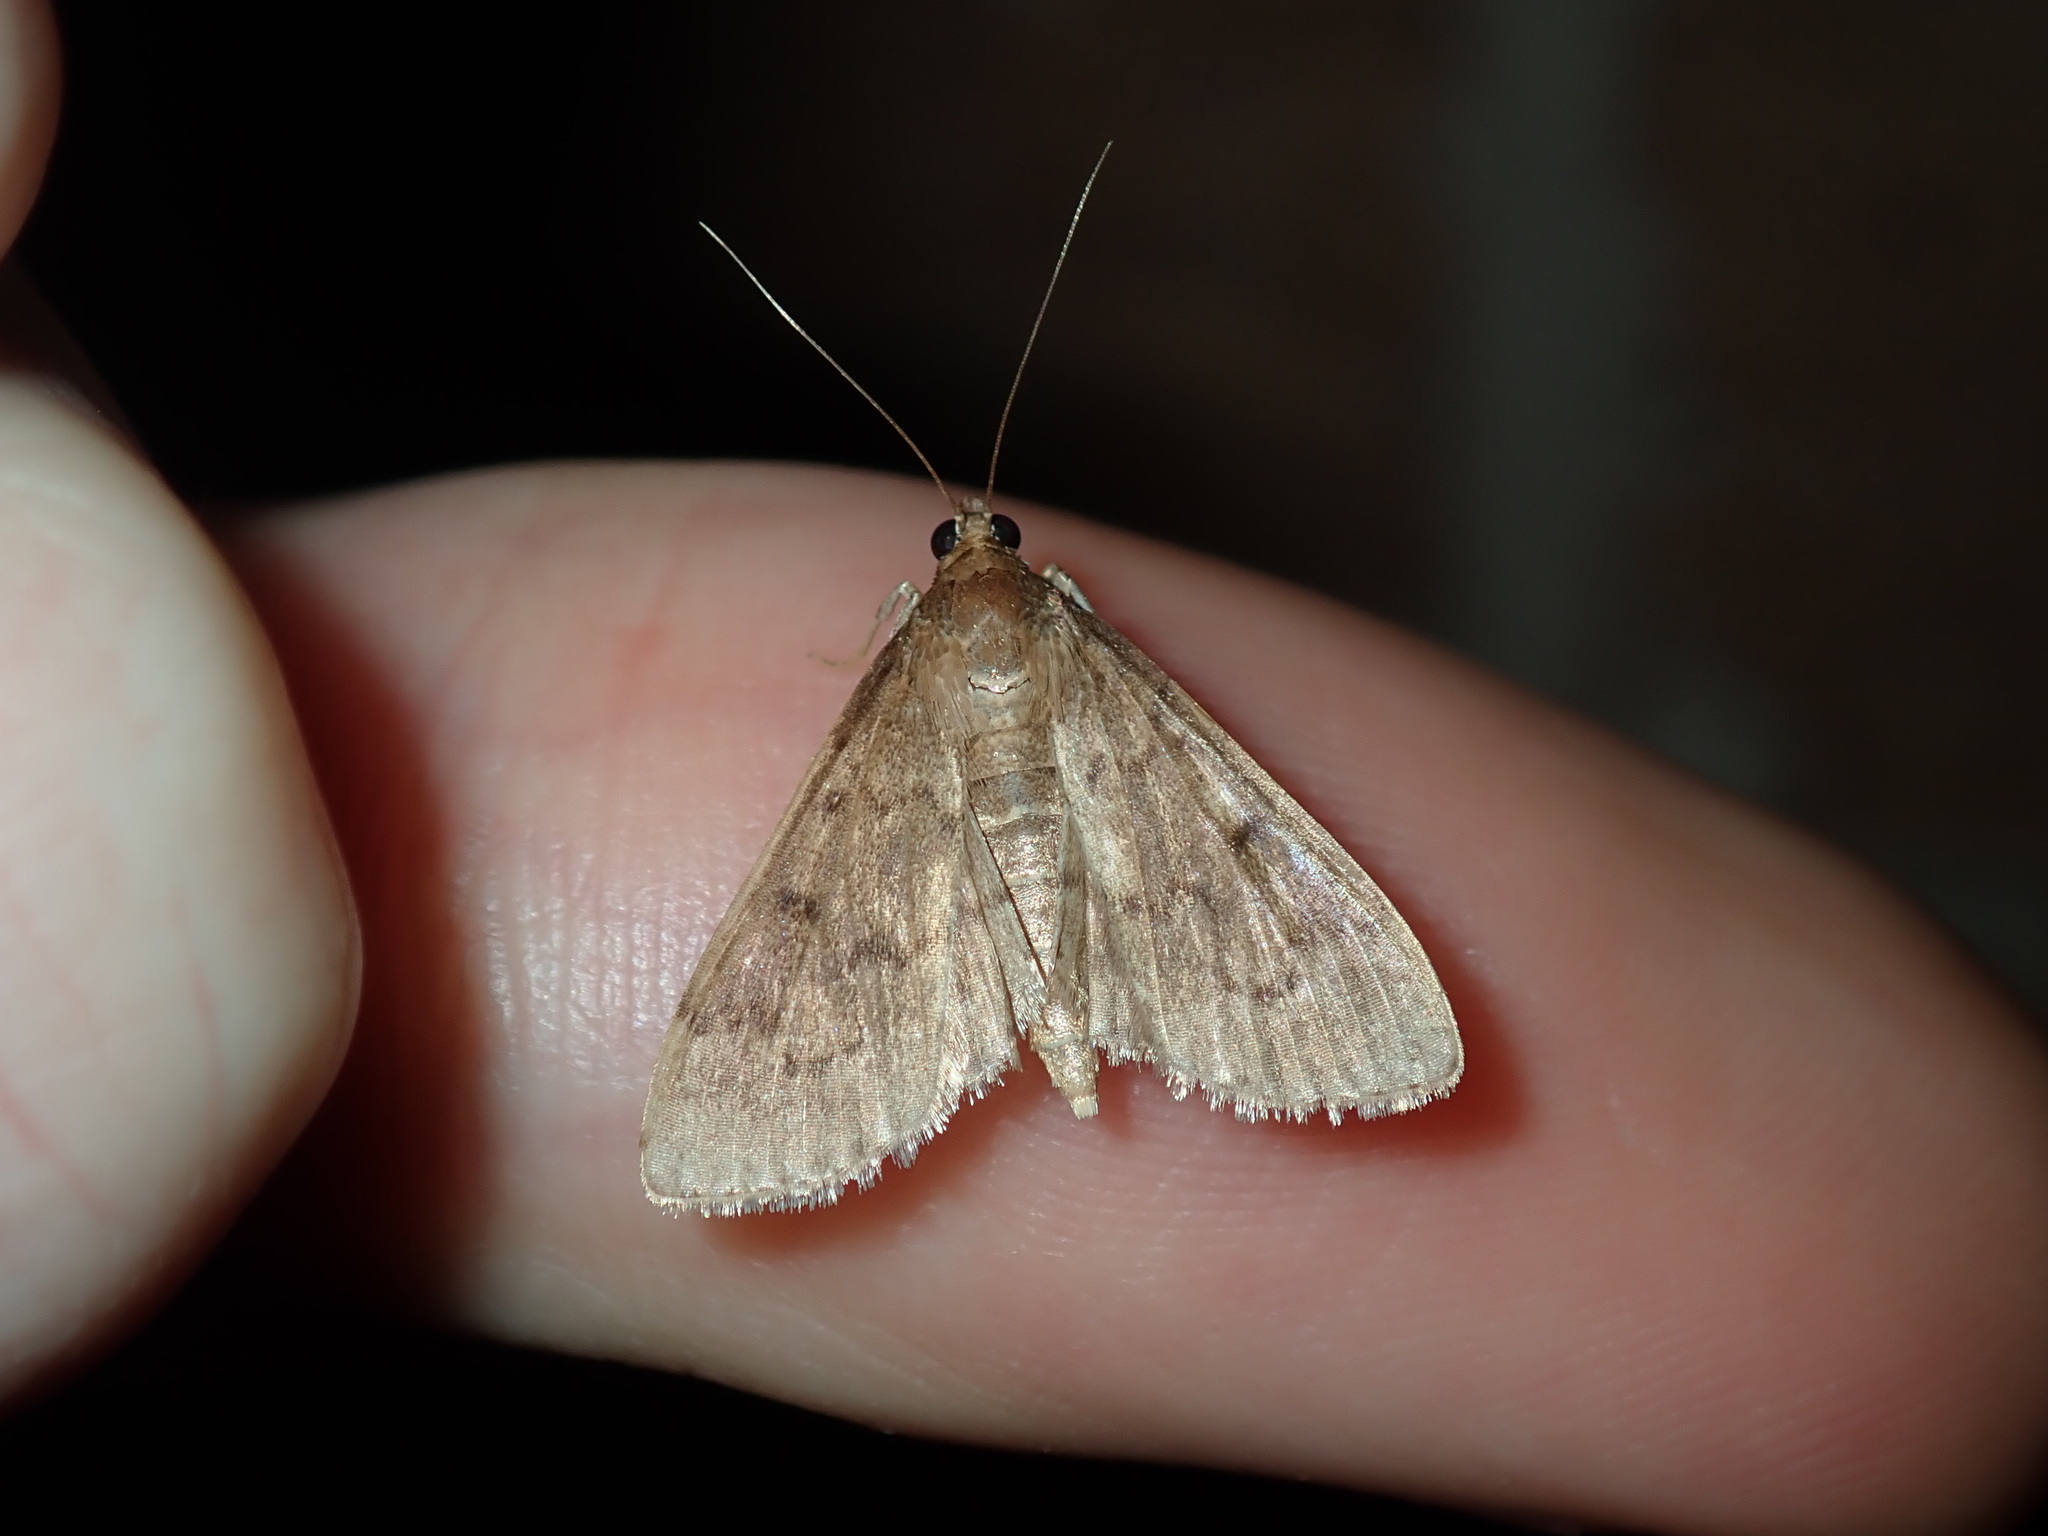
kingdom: Animalia
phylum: Arthropoda
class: Insecta
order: Lepidoptera
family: Crambidae
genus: Herpetogramma
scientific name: Herpetogramma licarsisalis
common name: Grass webworm
